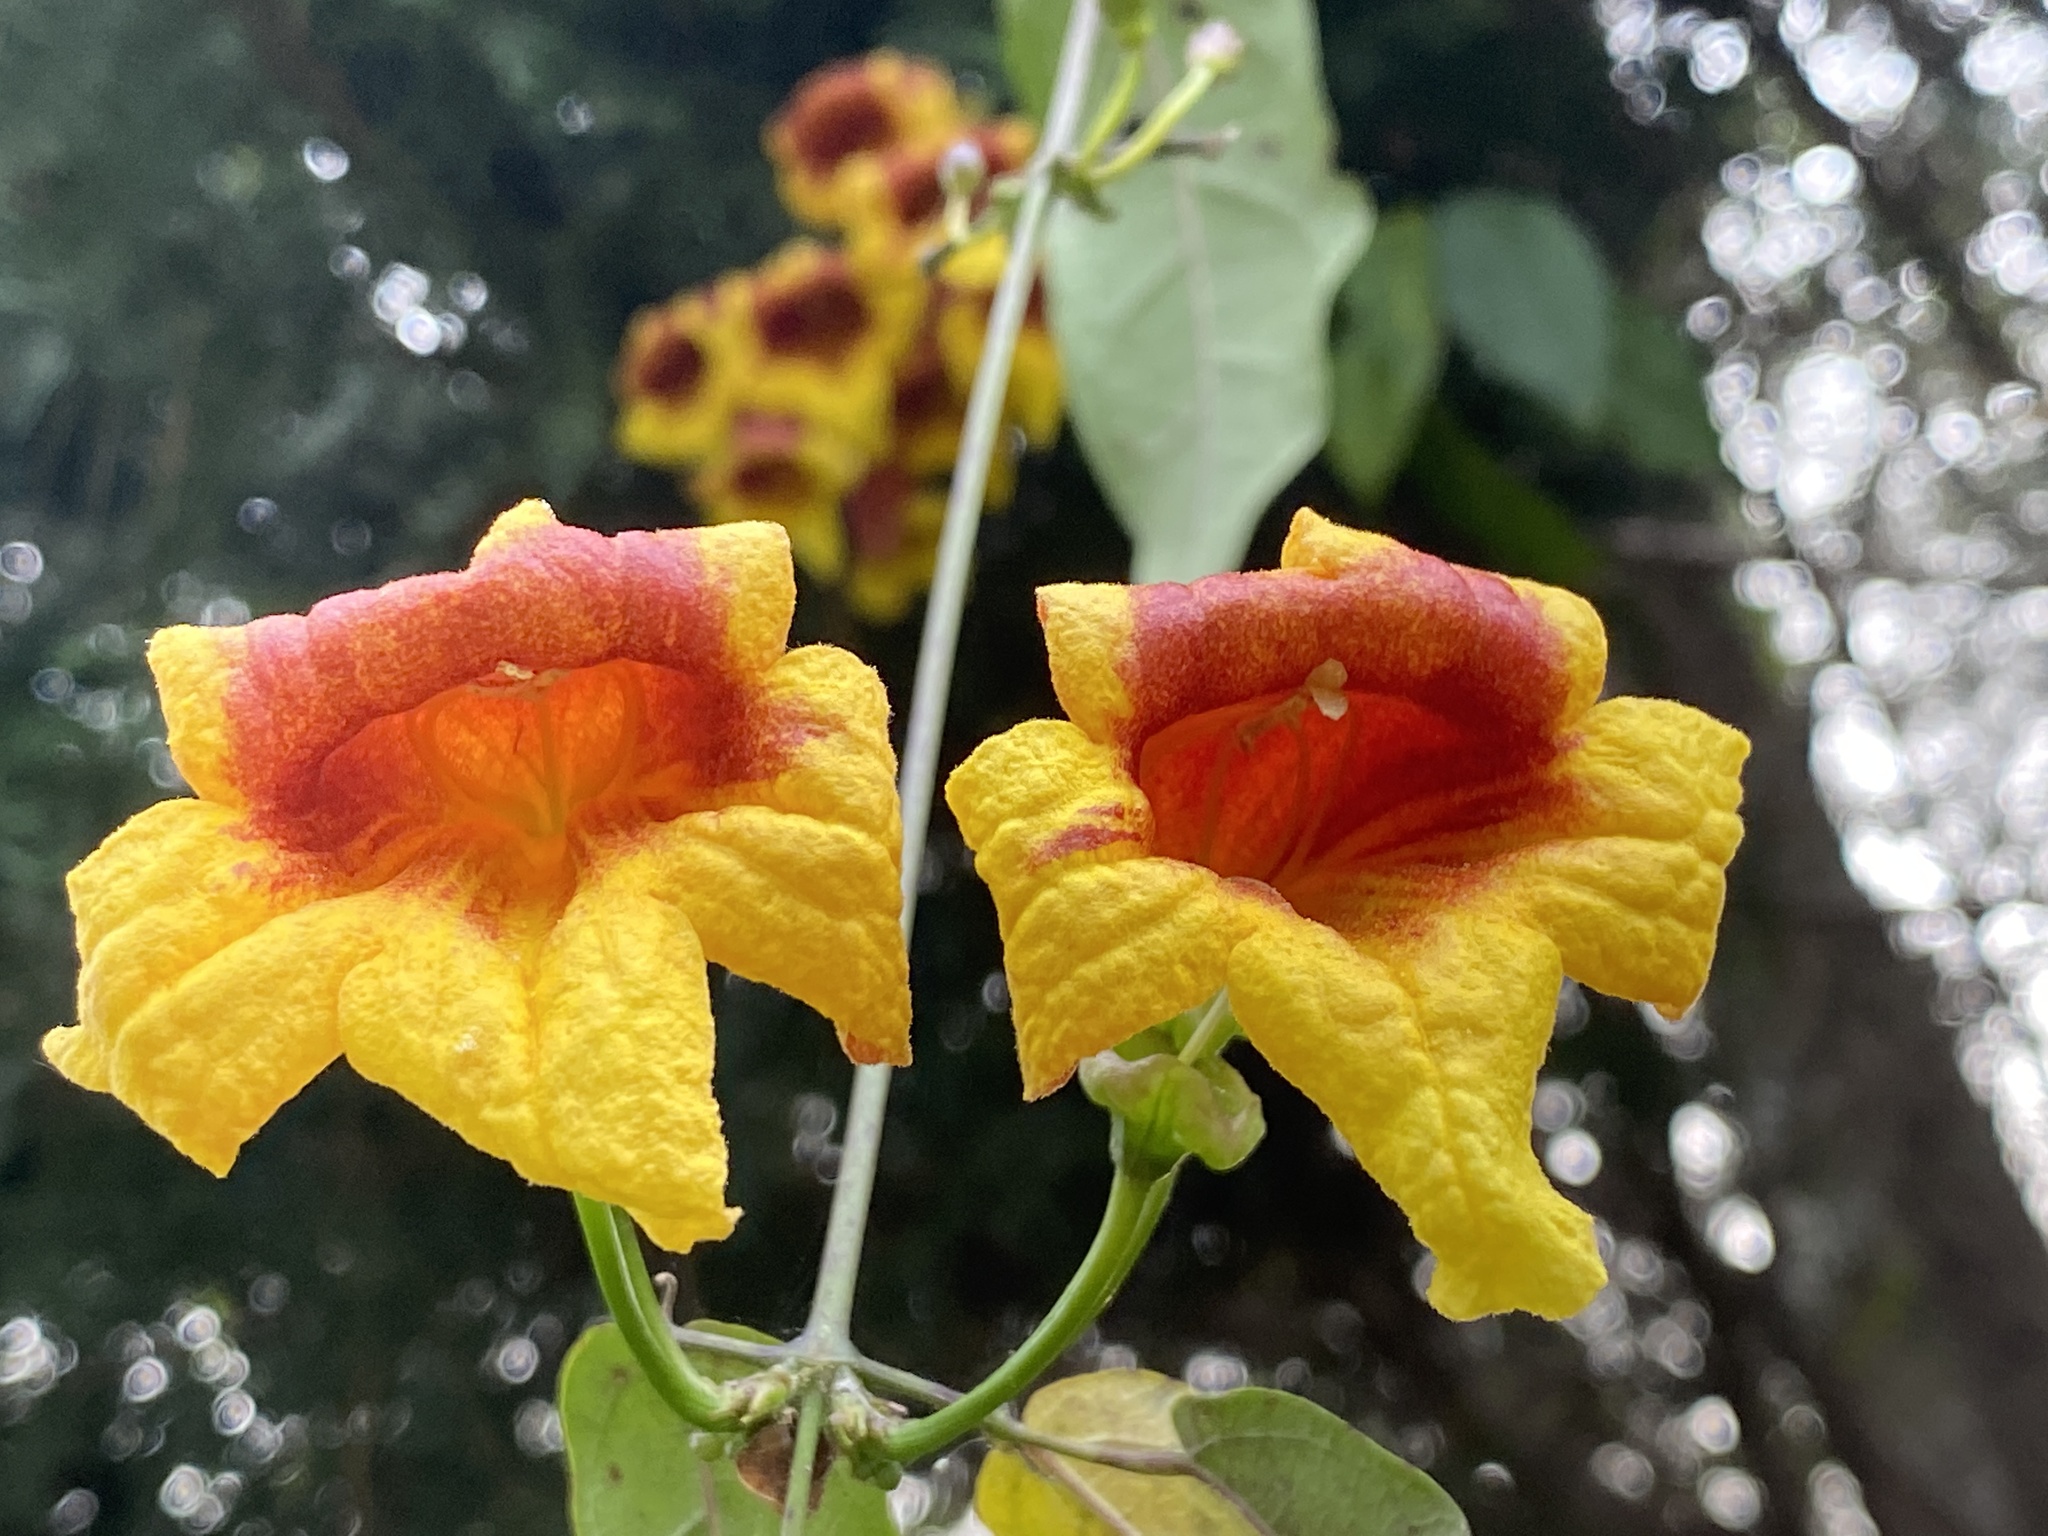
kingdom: Plantae
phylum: Tracheophyta
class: Magnoliopsida
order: Lamiales
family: Bignoniaceae
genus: Bignonia
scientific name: Bignonia capreolata
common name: Crossvine
